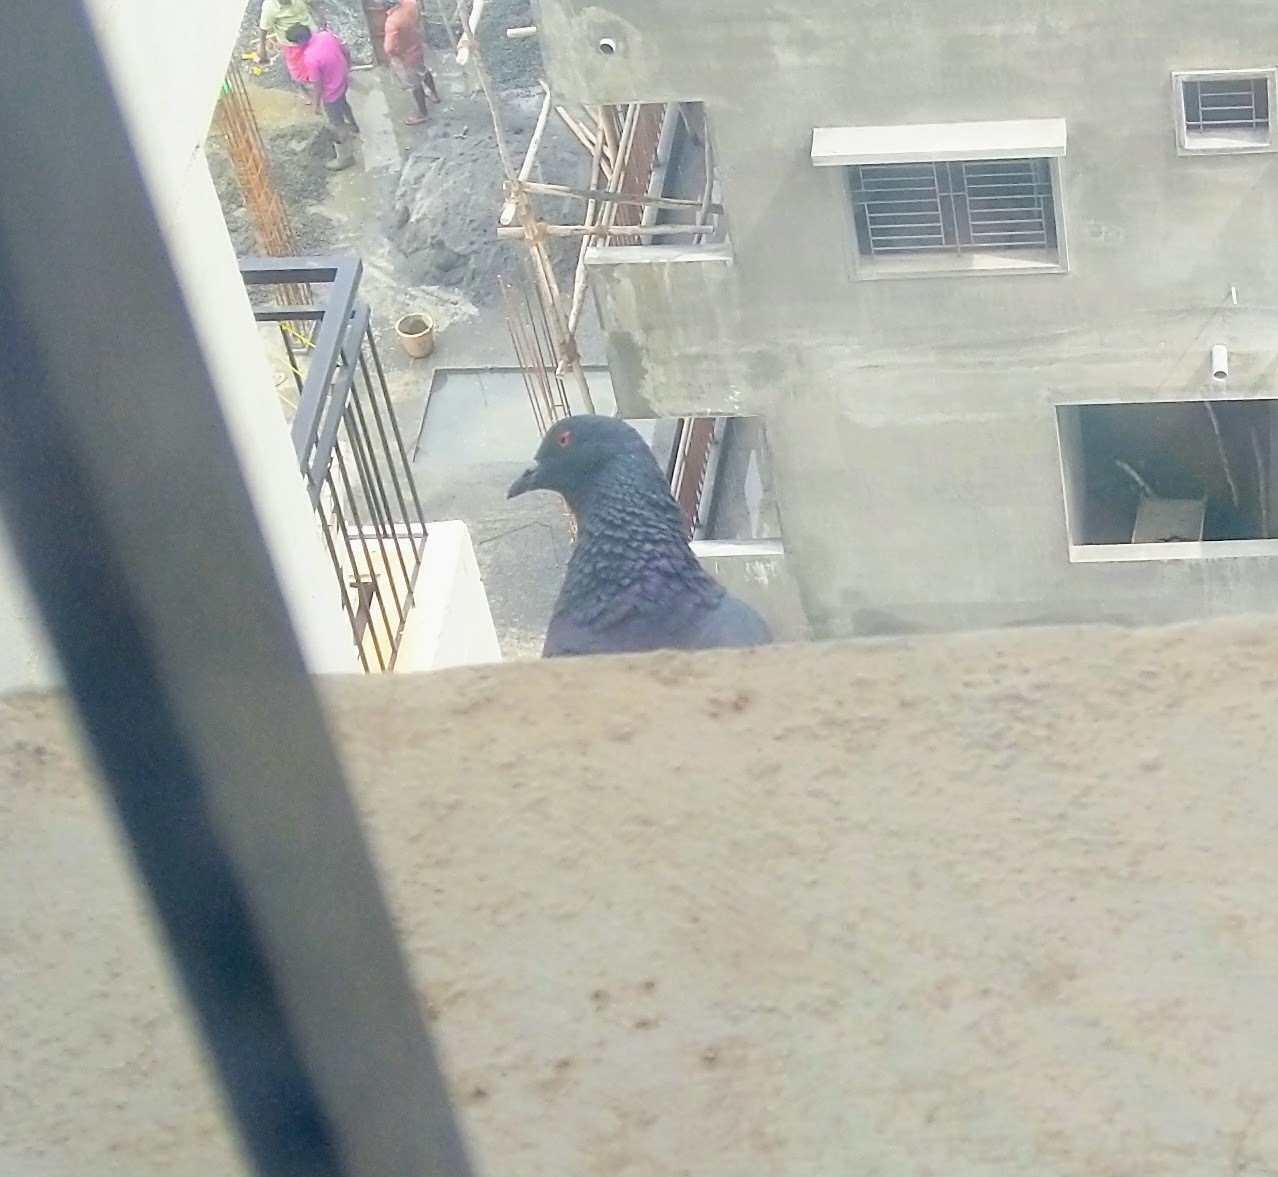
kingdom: Animalia
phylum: Chordata
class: Aves
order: Columbiformes
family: Columbidae
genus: Columba
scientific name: Columba livia
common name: Rock pigeon
